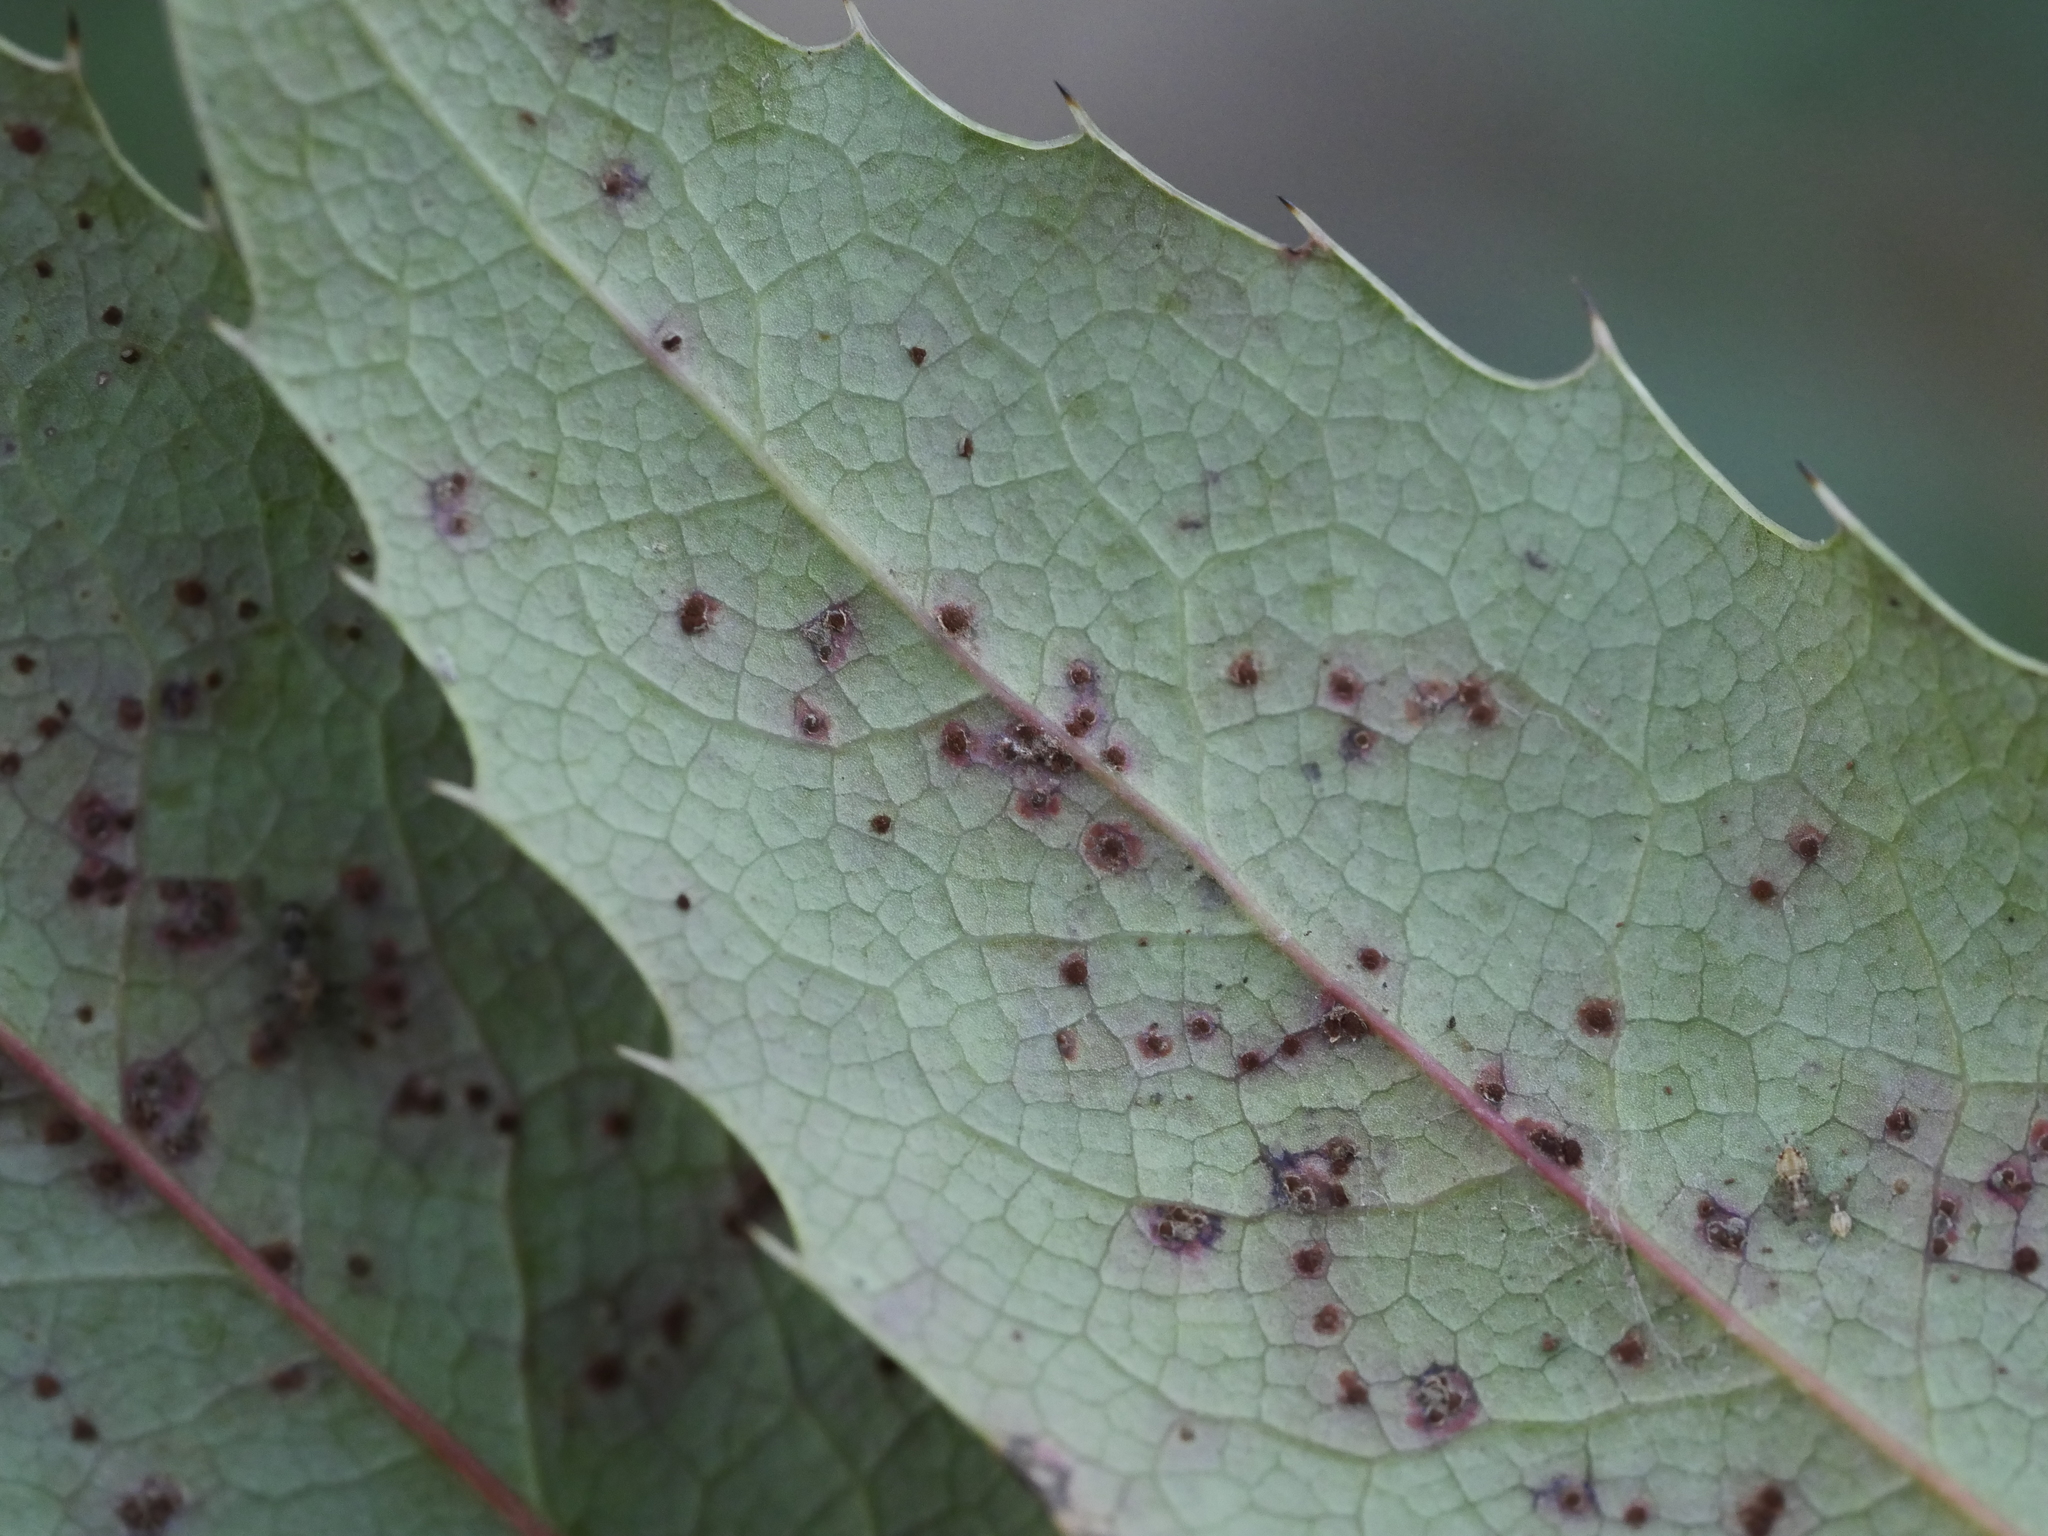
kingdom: Fungi
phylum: Basidiomycota
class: Pucciniomycetes
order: Pucciniales
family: Pucciniaceae
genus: Cumminsiella
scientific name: Cumminsiella mirabilissima
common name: Mahonia rust
